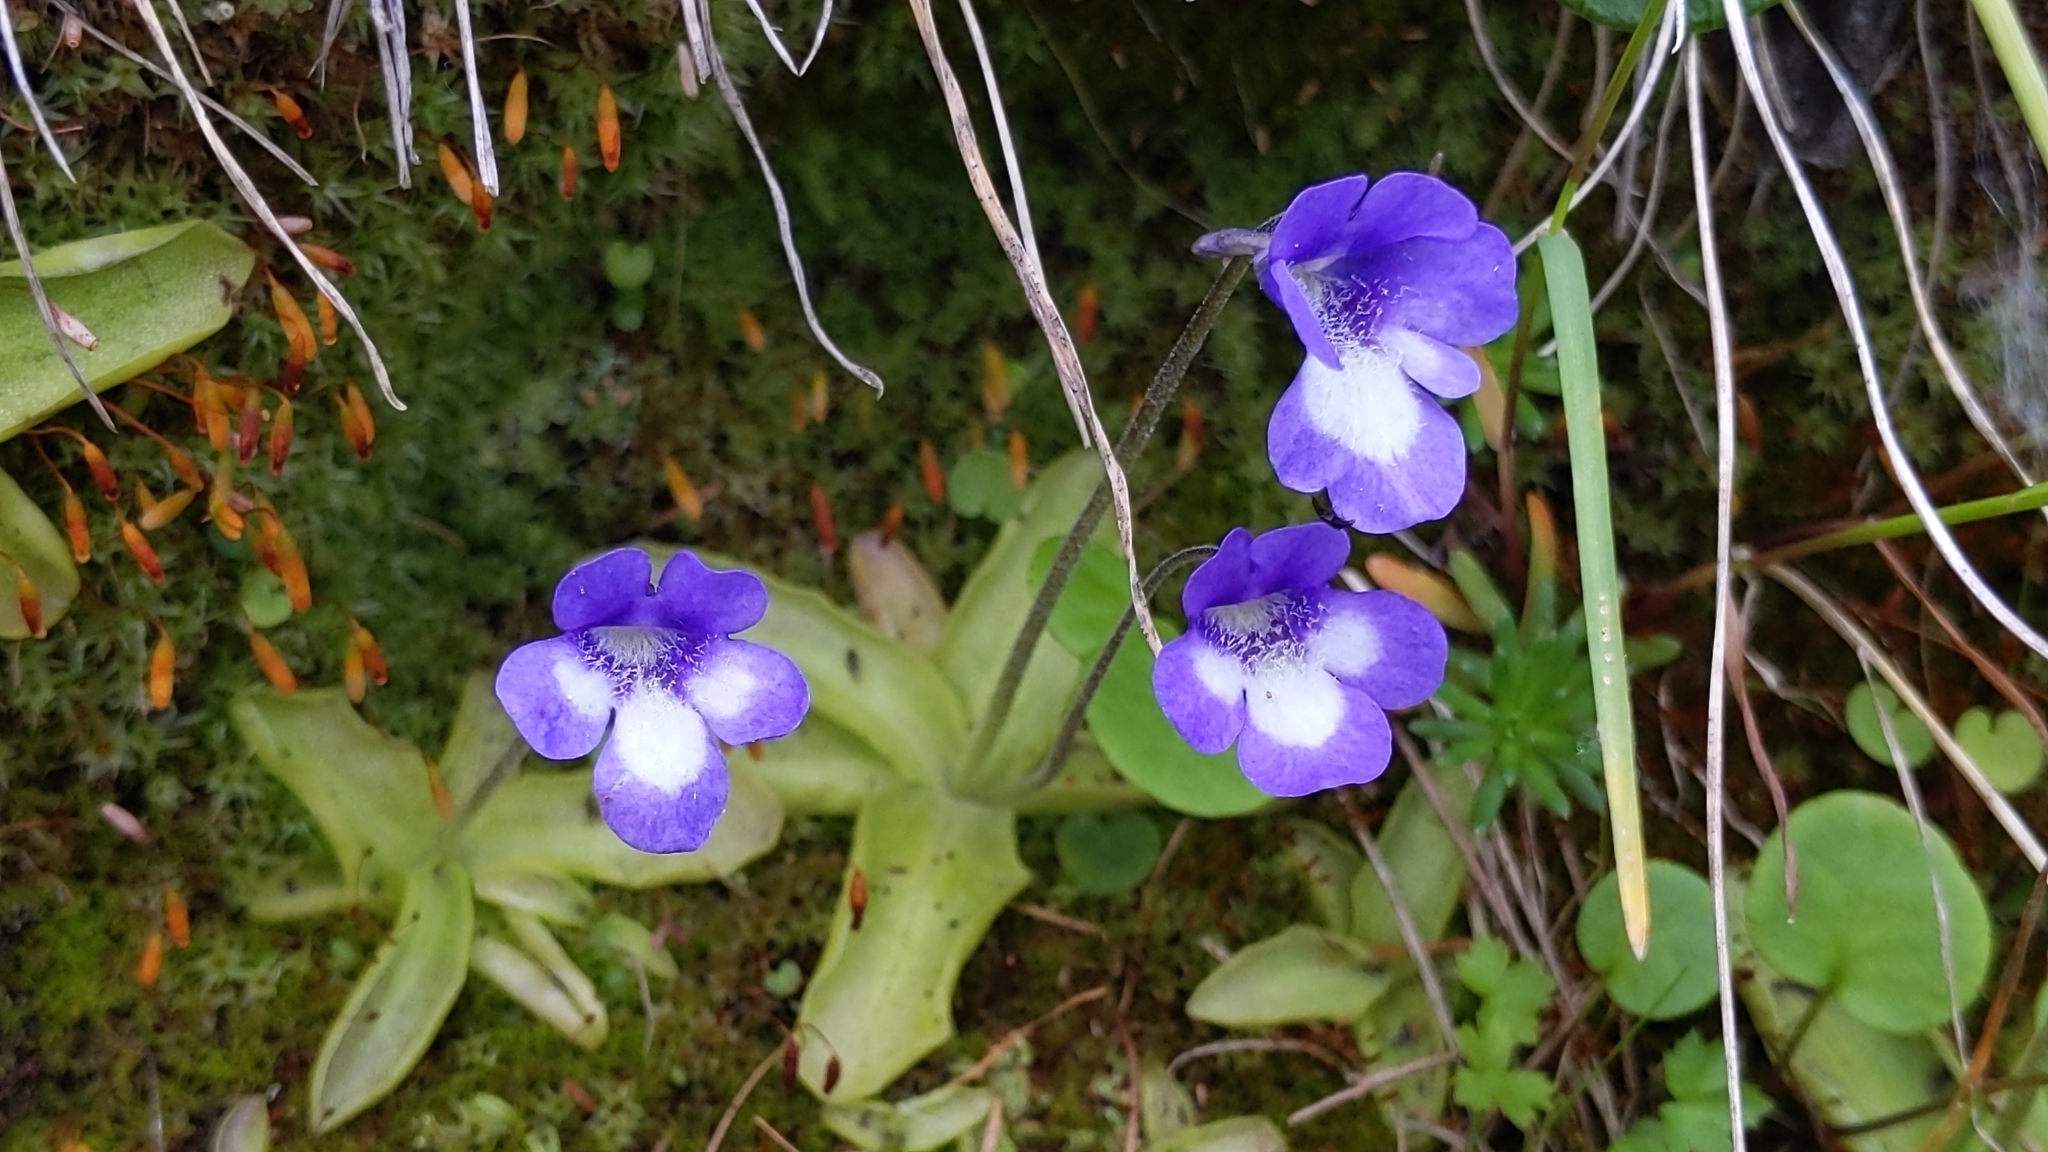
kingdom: Plantae
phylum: Tracheophyta
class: Magnoliopsida
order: Lamiales
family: Lentibulariaceae
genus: Pinguicula
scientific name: Pinguicula leptoceras
